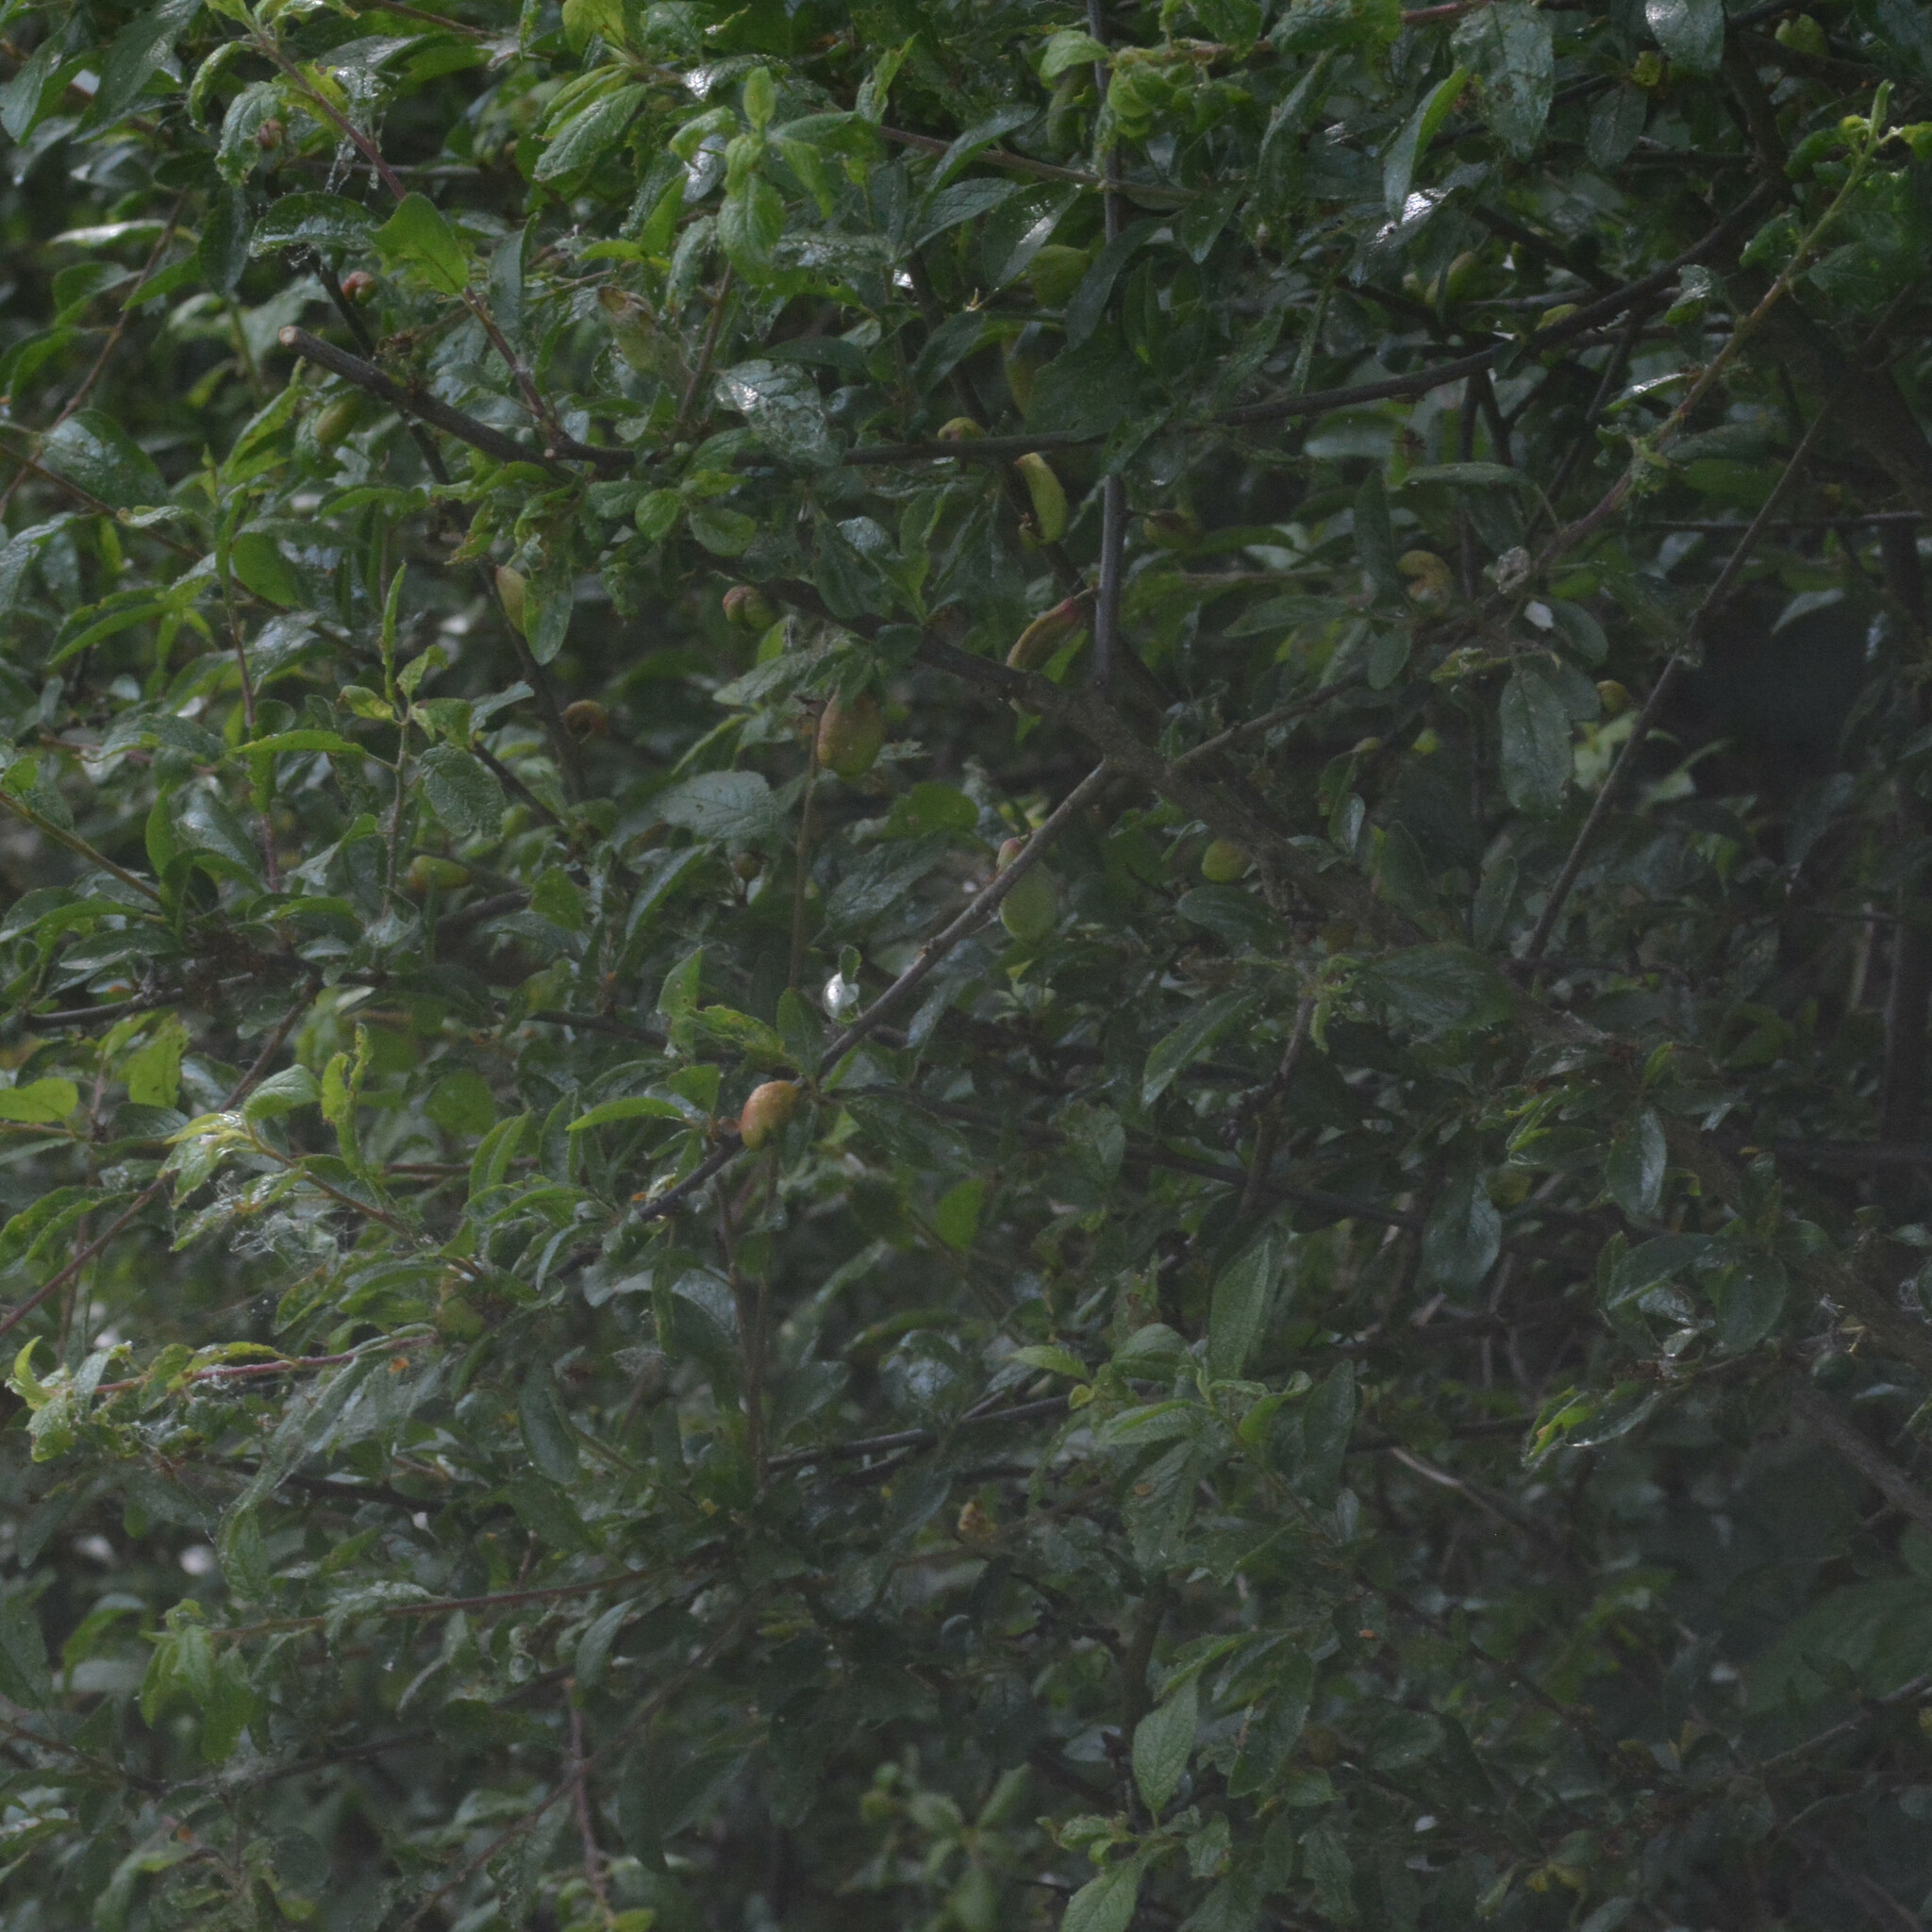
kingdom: Fungi
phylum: Ascomycota
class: Taphrinomycetes
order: Taphrinales
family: Taphrinaceae
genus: Taphrina
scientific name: Taphrina pruni
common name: Pocket plum
